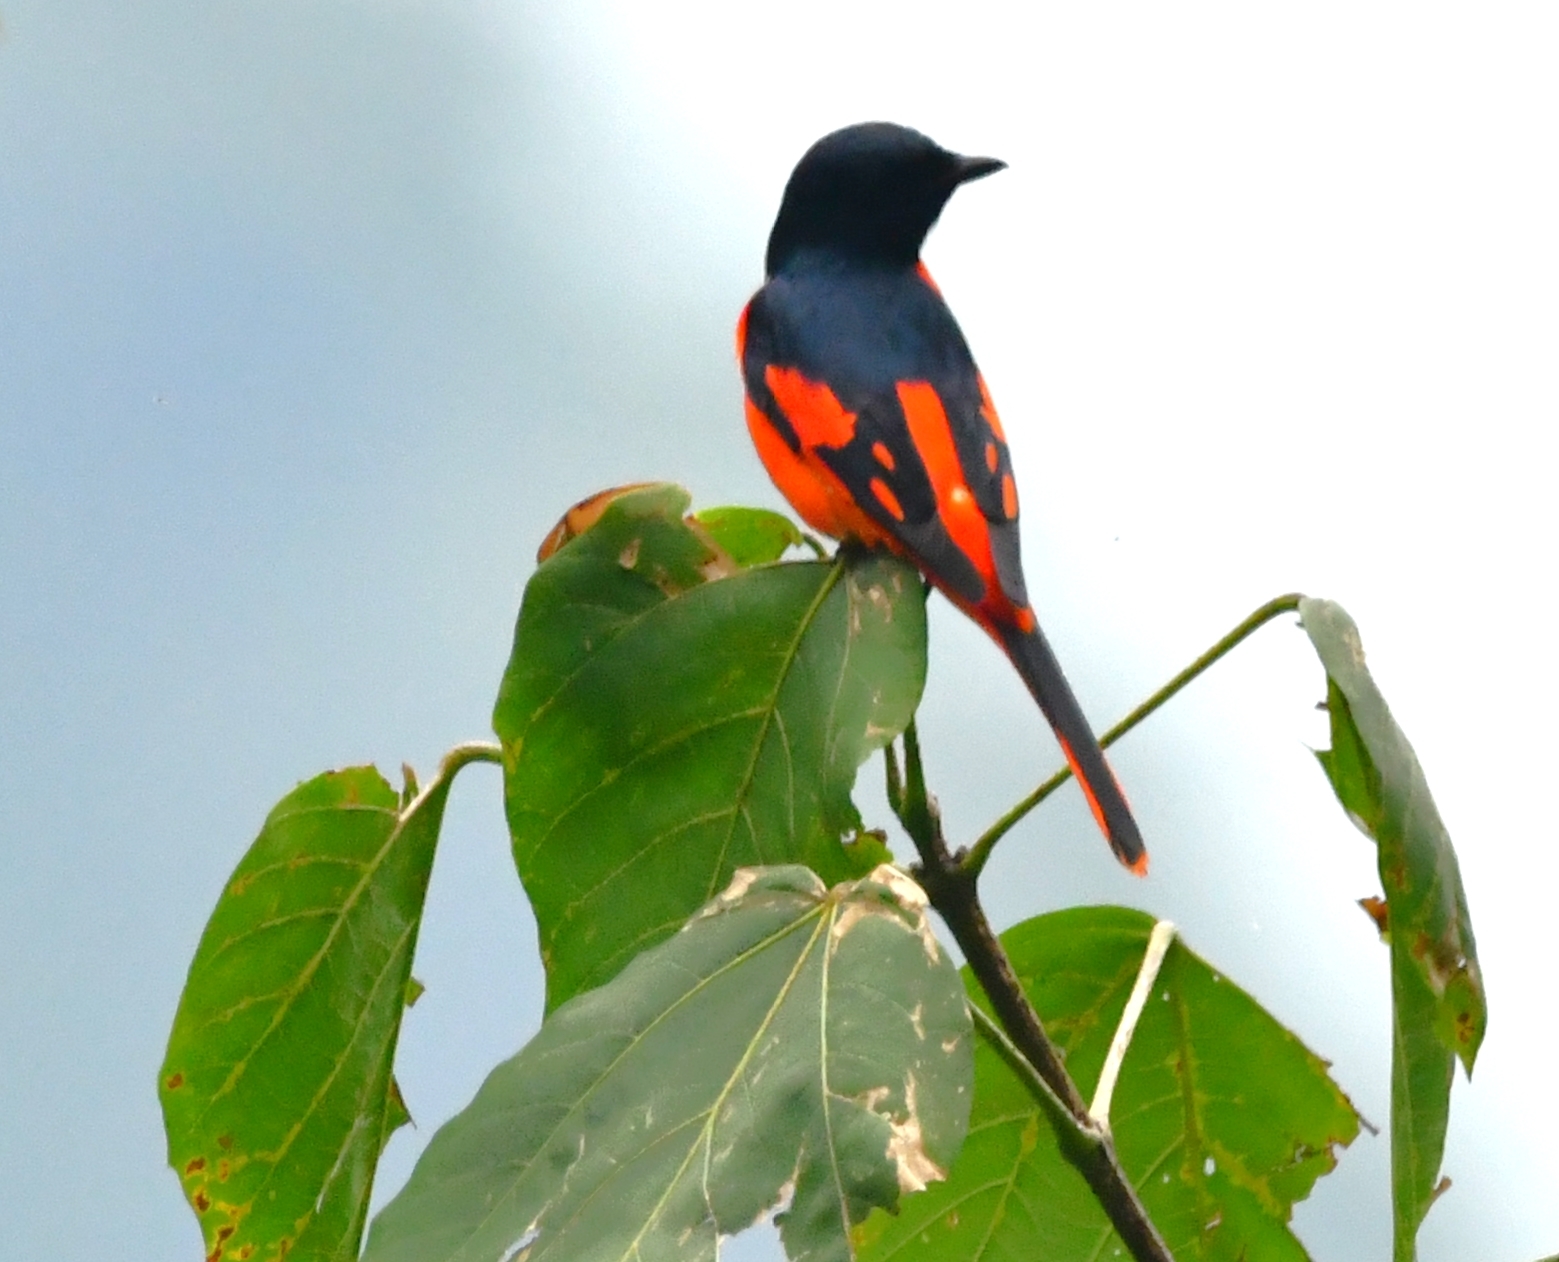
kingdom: Animalia
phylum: Chordata
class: Aves
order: Passeriformes
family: Campephagidae
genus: Pericrocotus
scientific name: Pericrocotus speciosus
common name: Scarlet minivet
